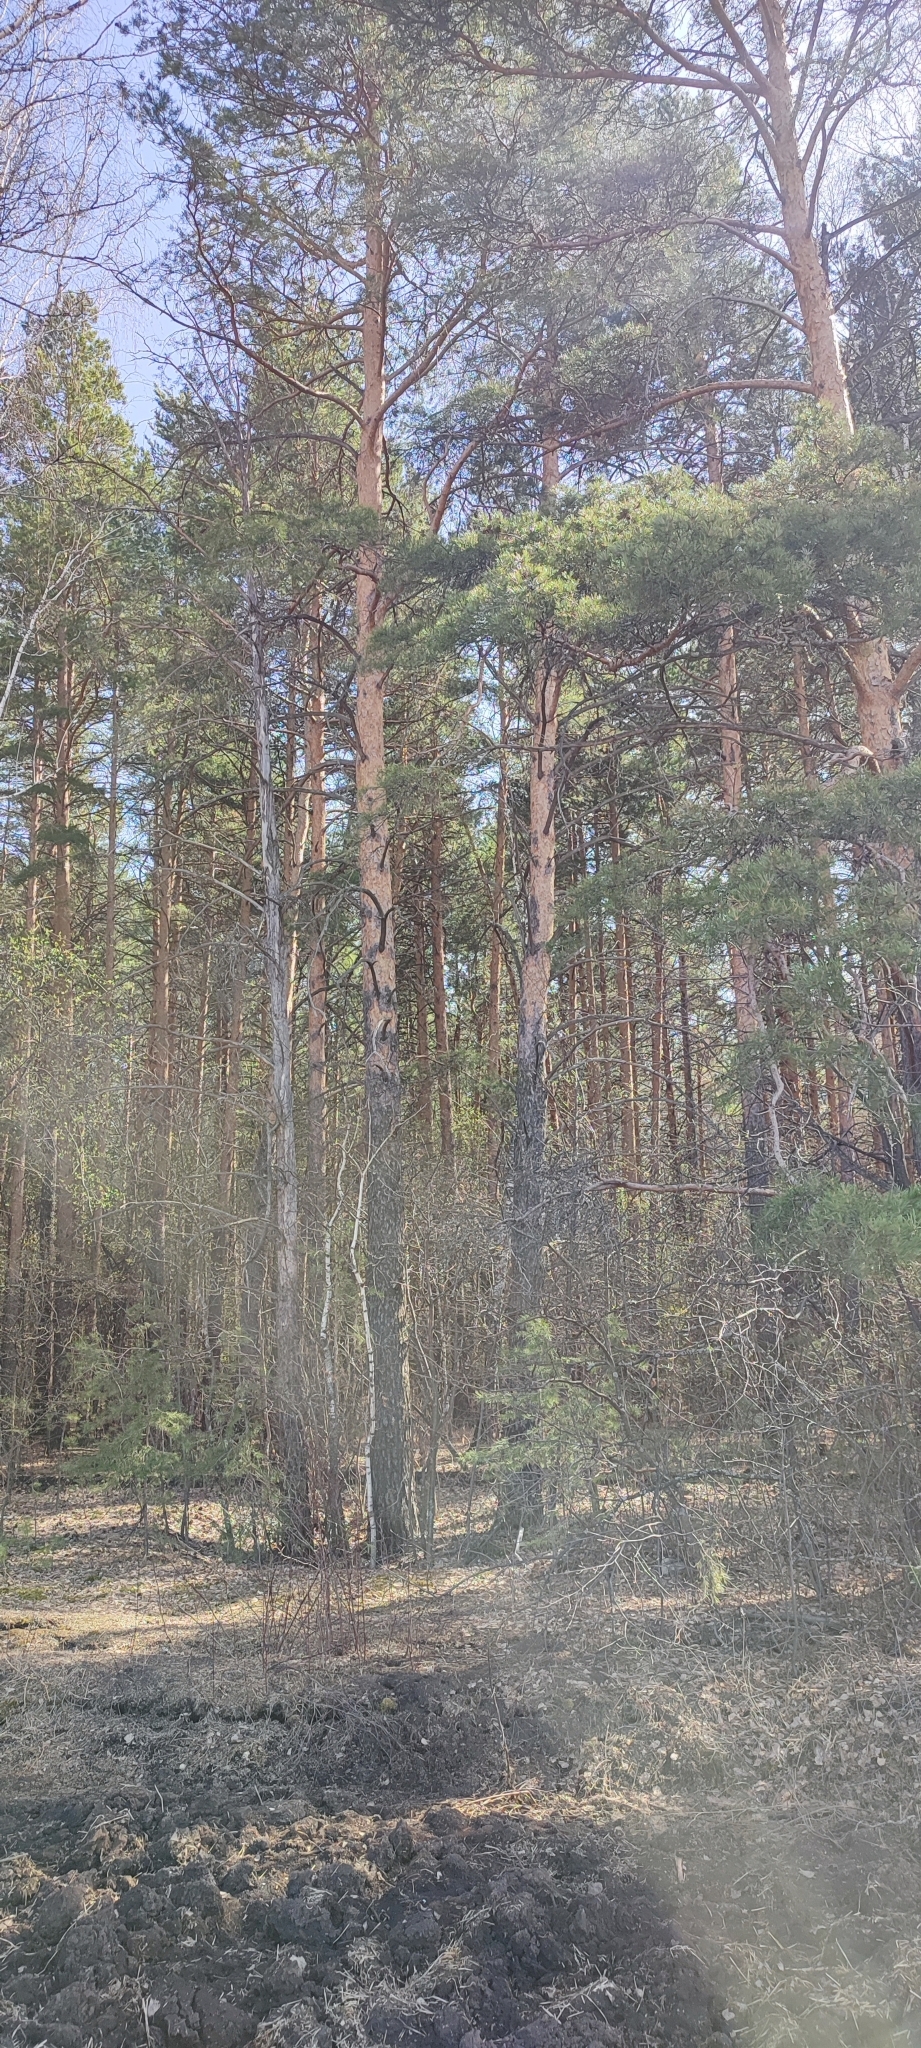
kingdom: Plantae
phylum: Tracheophyta
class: Pinopsida
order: Pinales
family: Pinaceae
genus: Pinus
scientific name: Pinus sylvestris
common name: Scots pine
